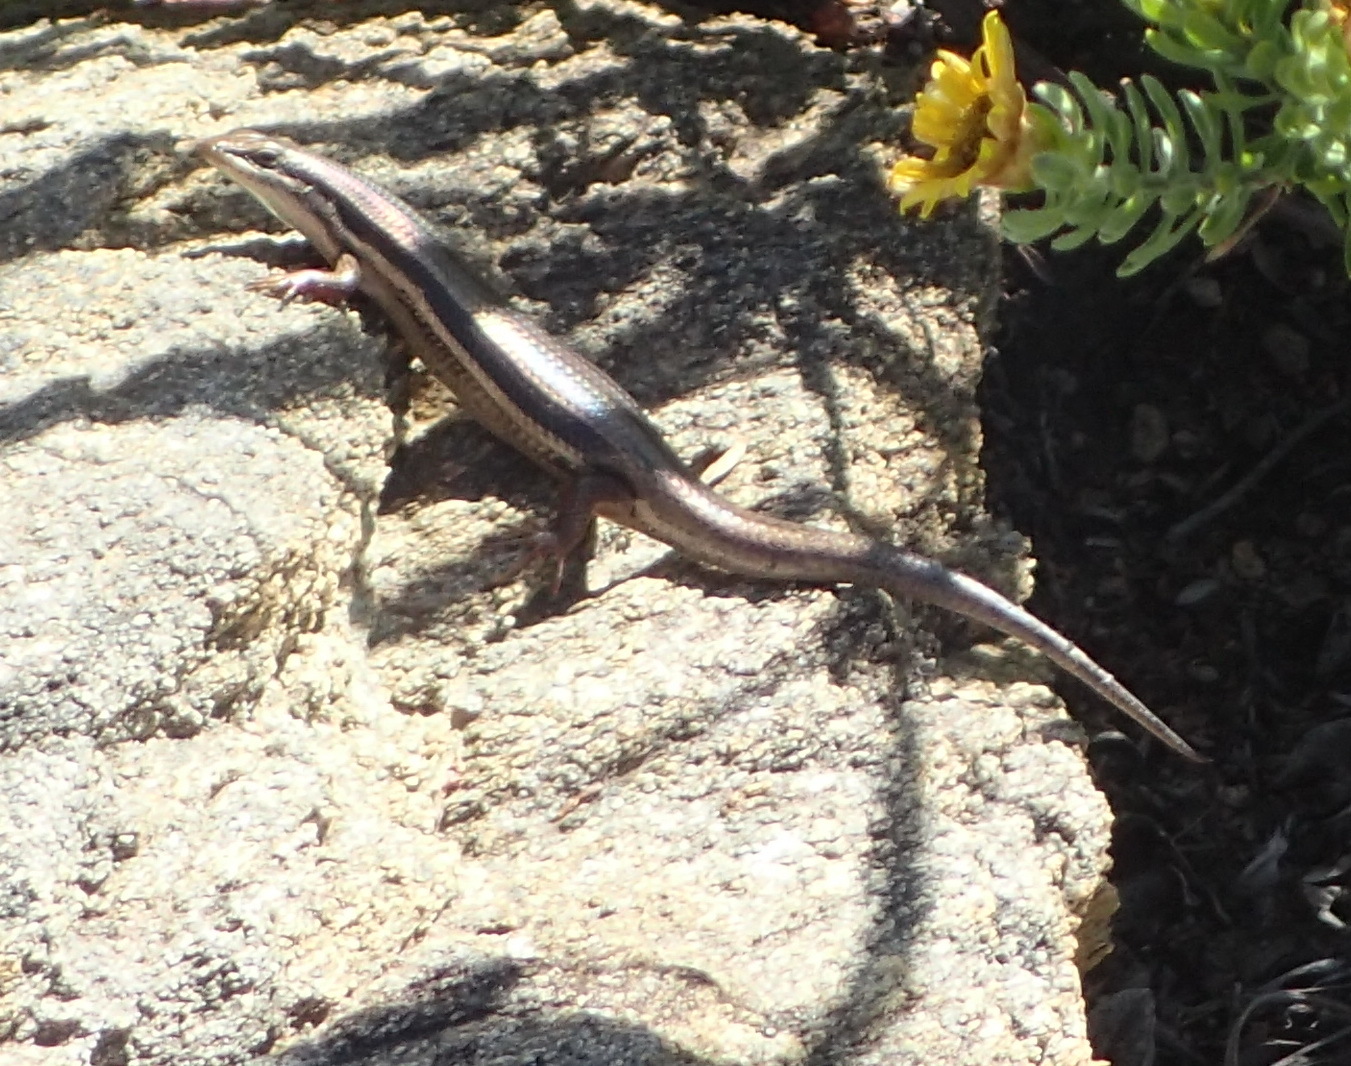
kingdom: Animalia
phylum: Chordata
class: Squamata
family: Scincidae
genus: Trachylepis
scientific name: Trachylepis homalocephala
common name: Red-sided skink
